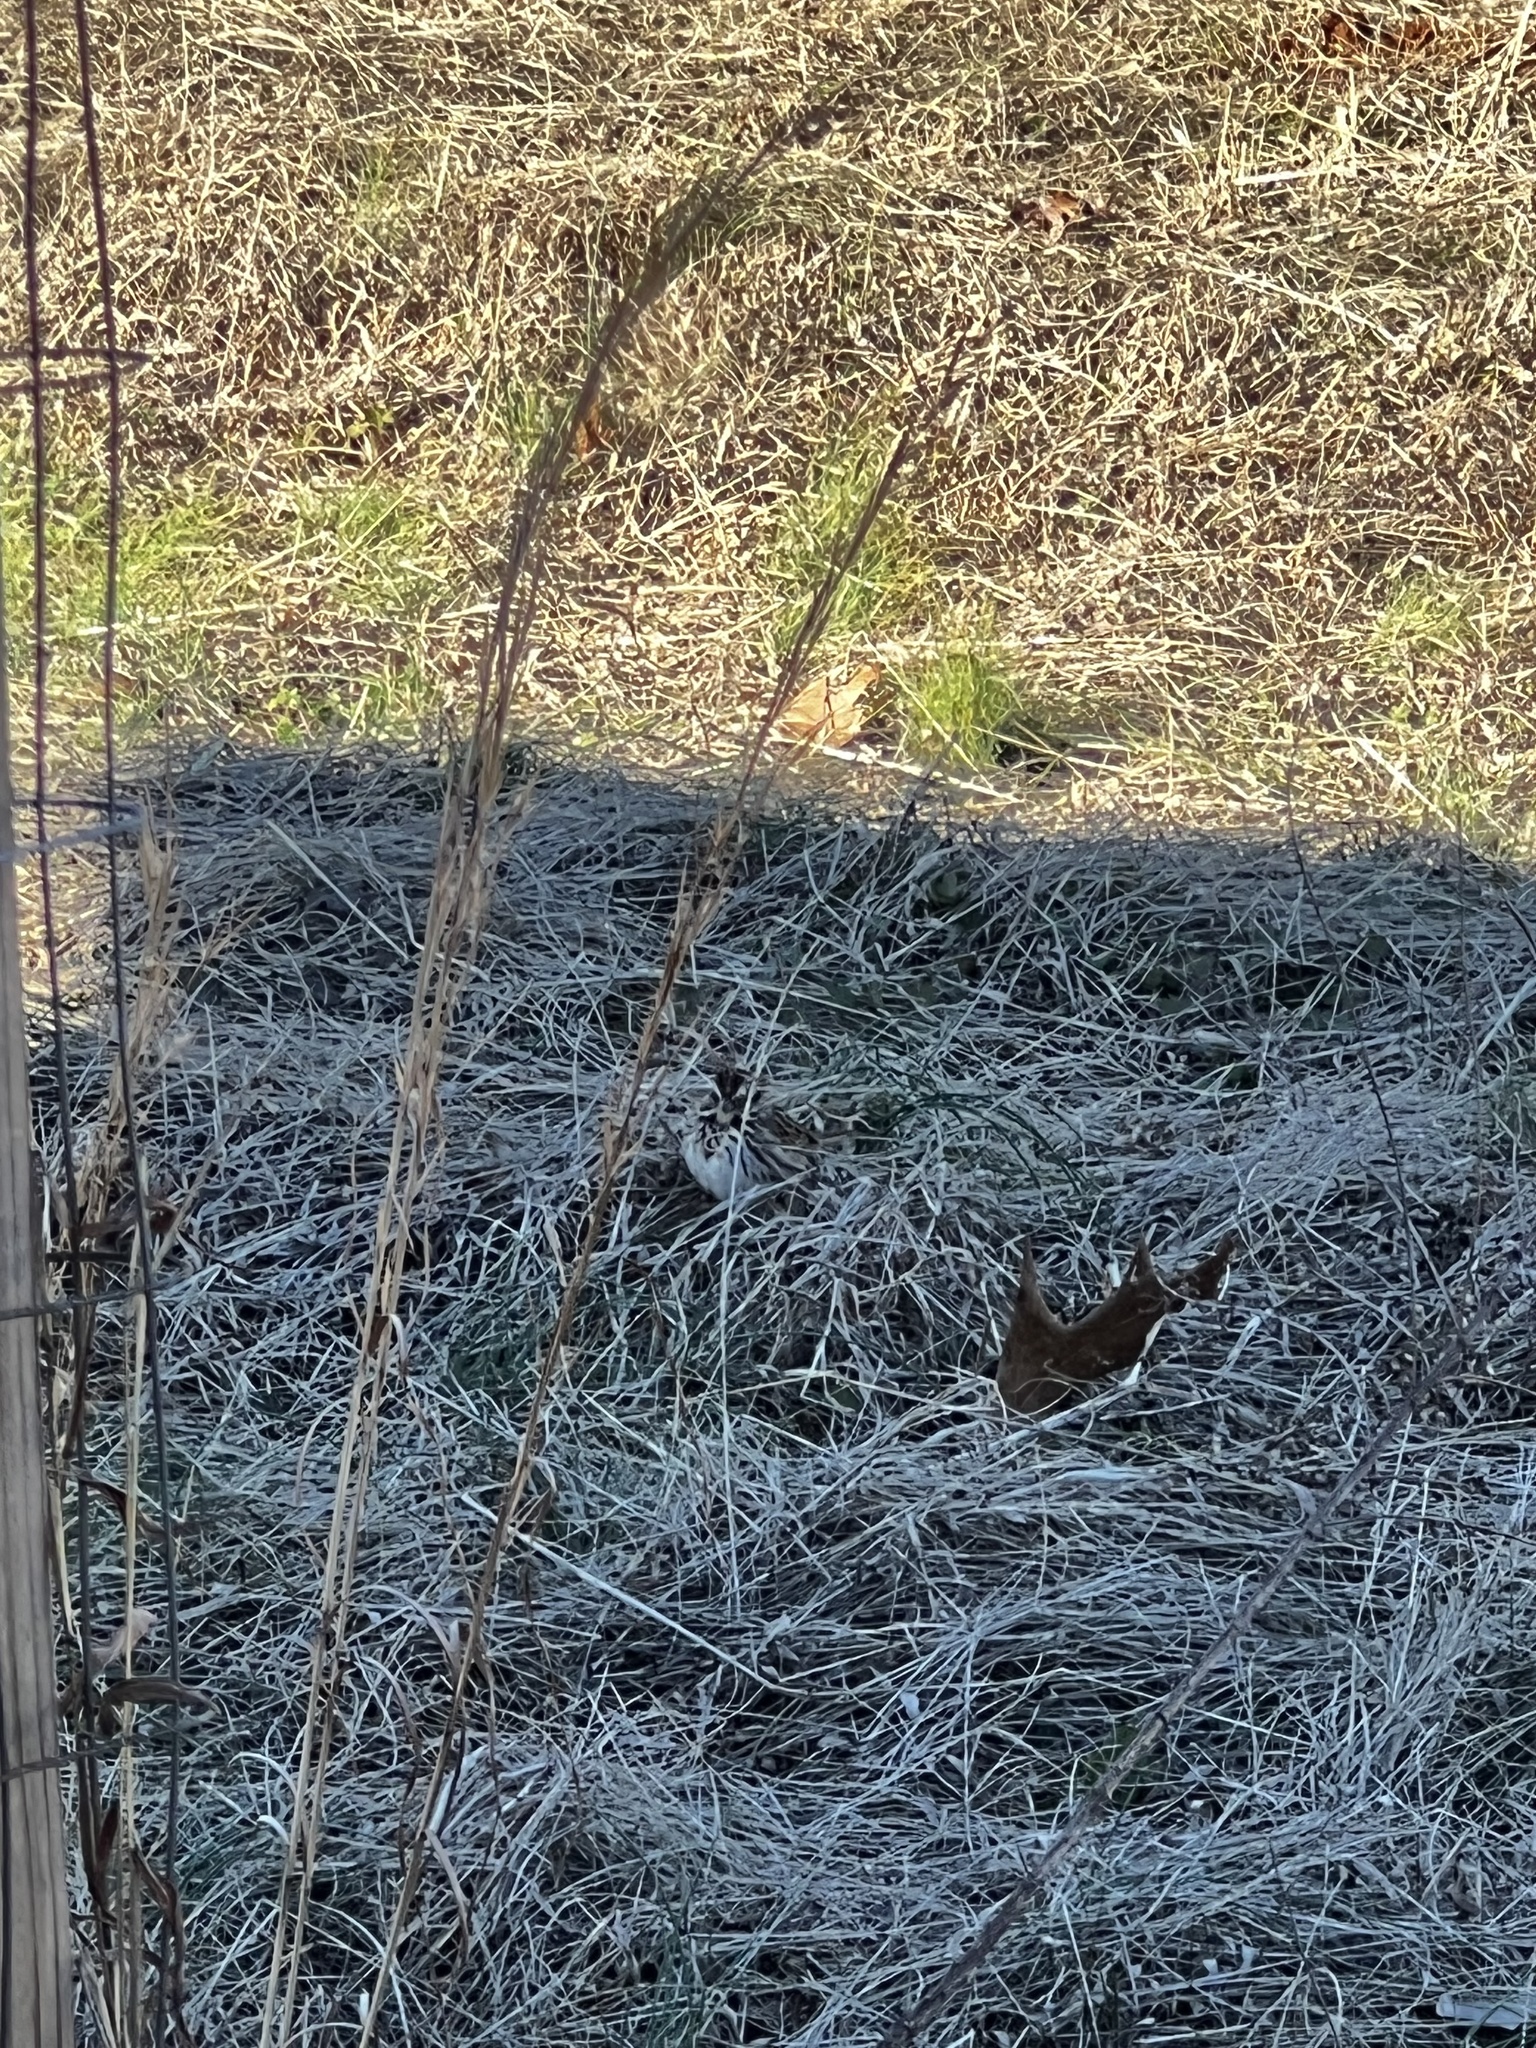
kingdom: Animalia
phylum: Chordata
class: Aves
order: Passeriformes
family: Passerellidae
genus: Melospiza
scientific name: Melospiza melodia
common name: Song sparrow
